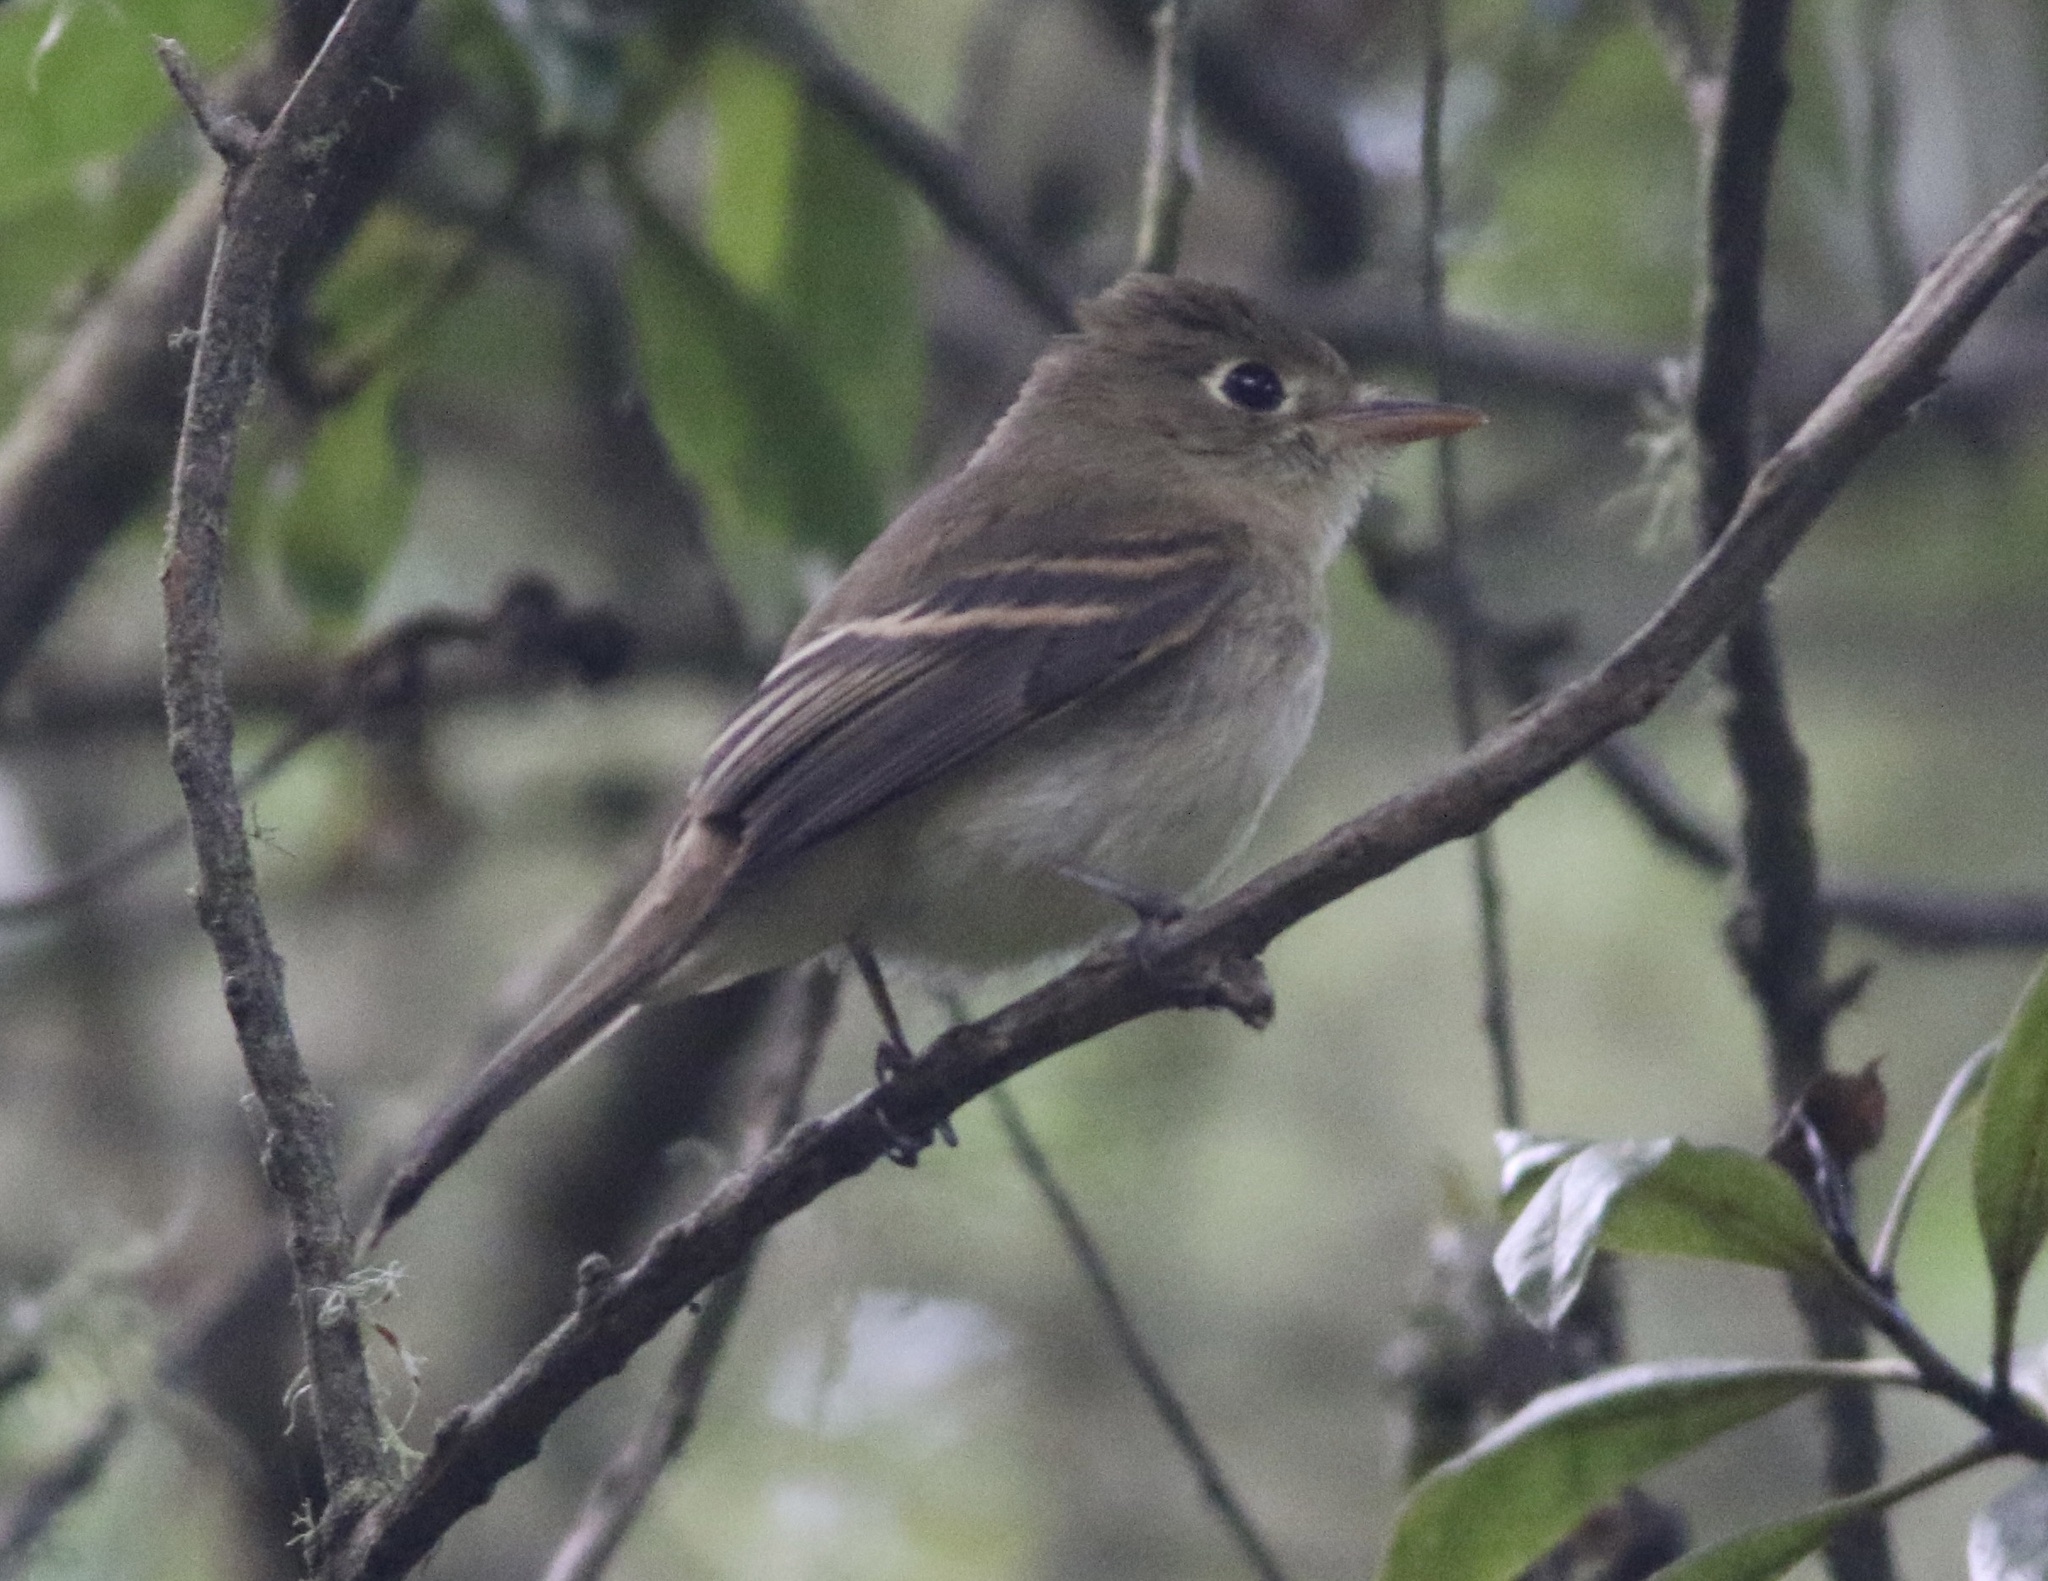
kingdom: Animalia
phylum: Chordata
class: Aves
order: Passeriformes
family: Tyrannidae
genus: Empidonax
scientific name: Empidonax difficilis
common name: Pacific-slope flycatcher
